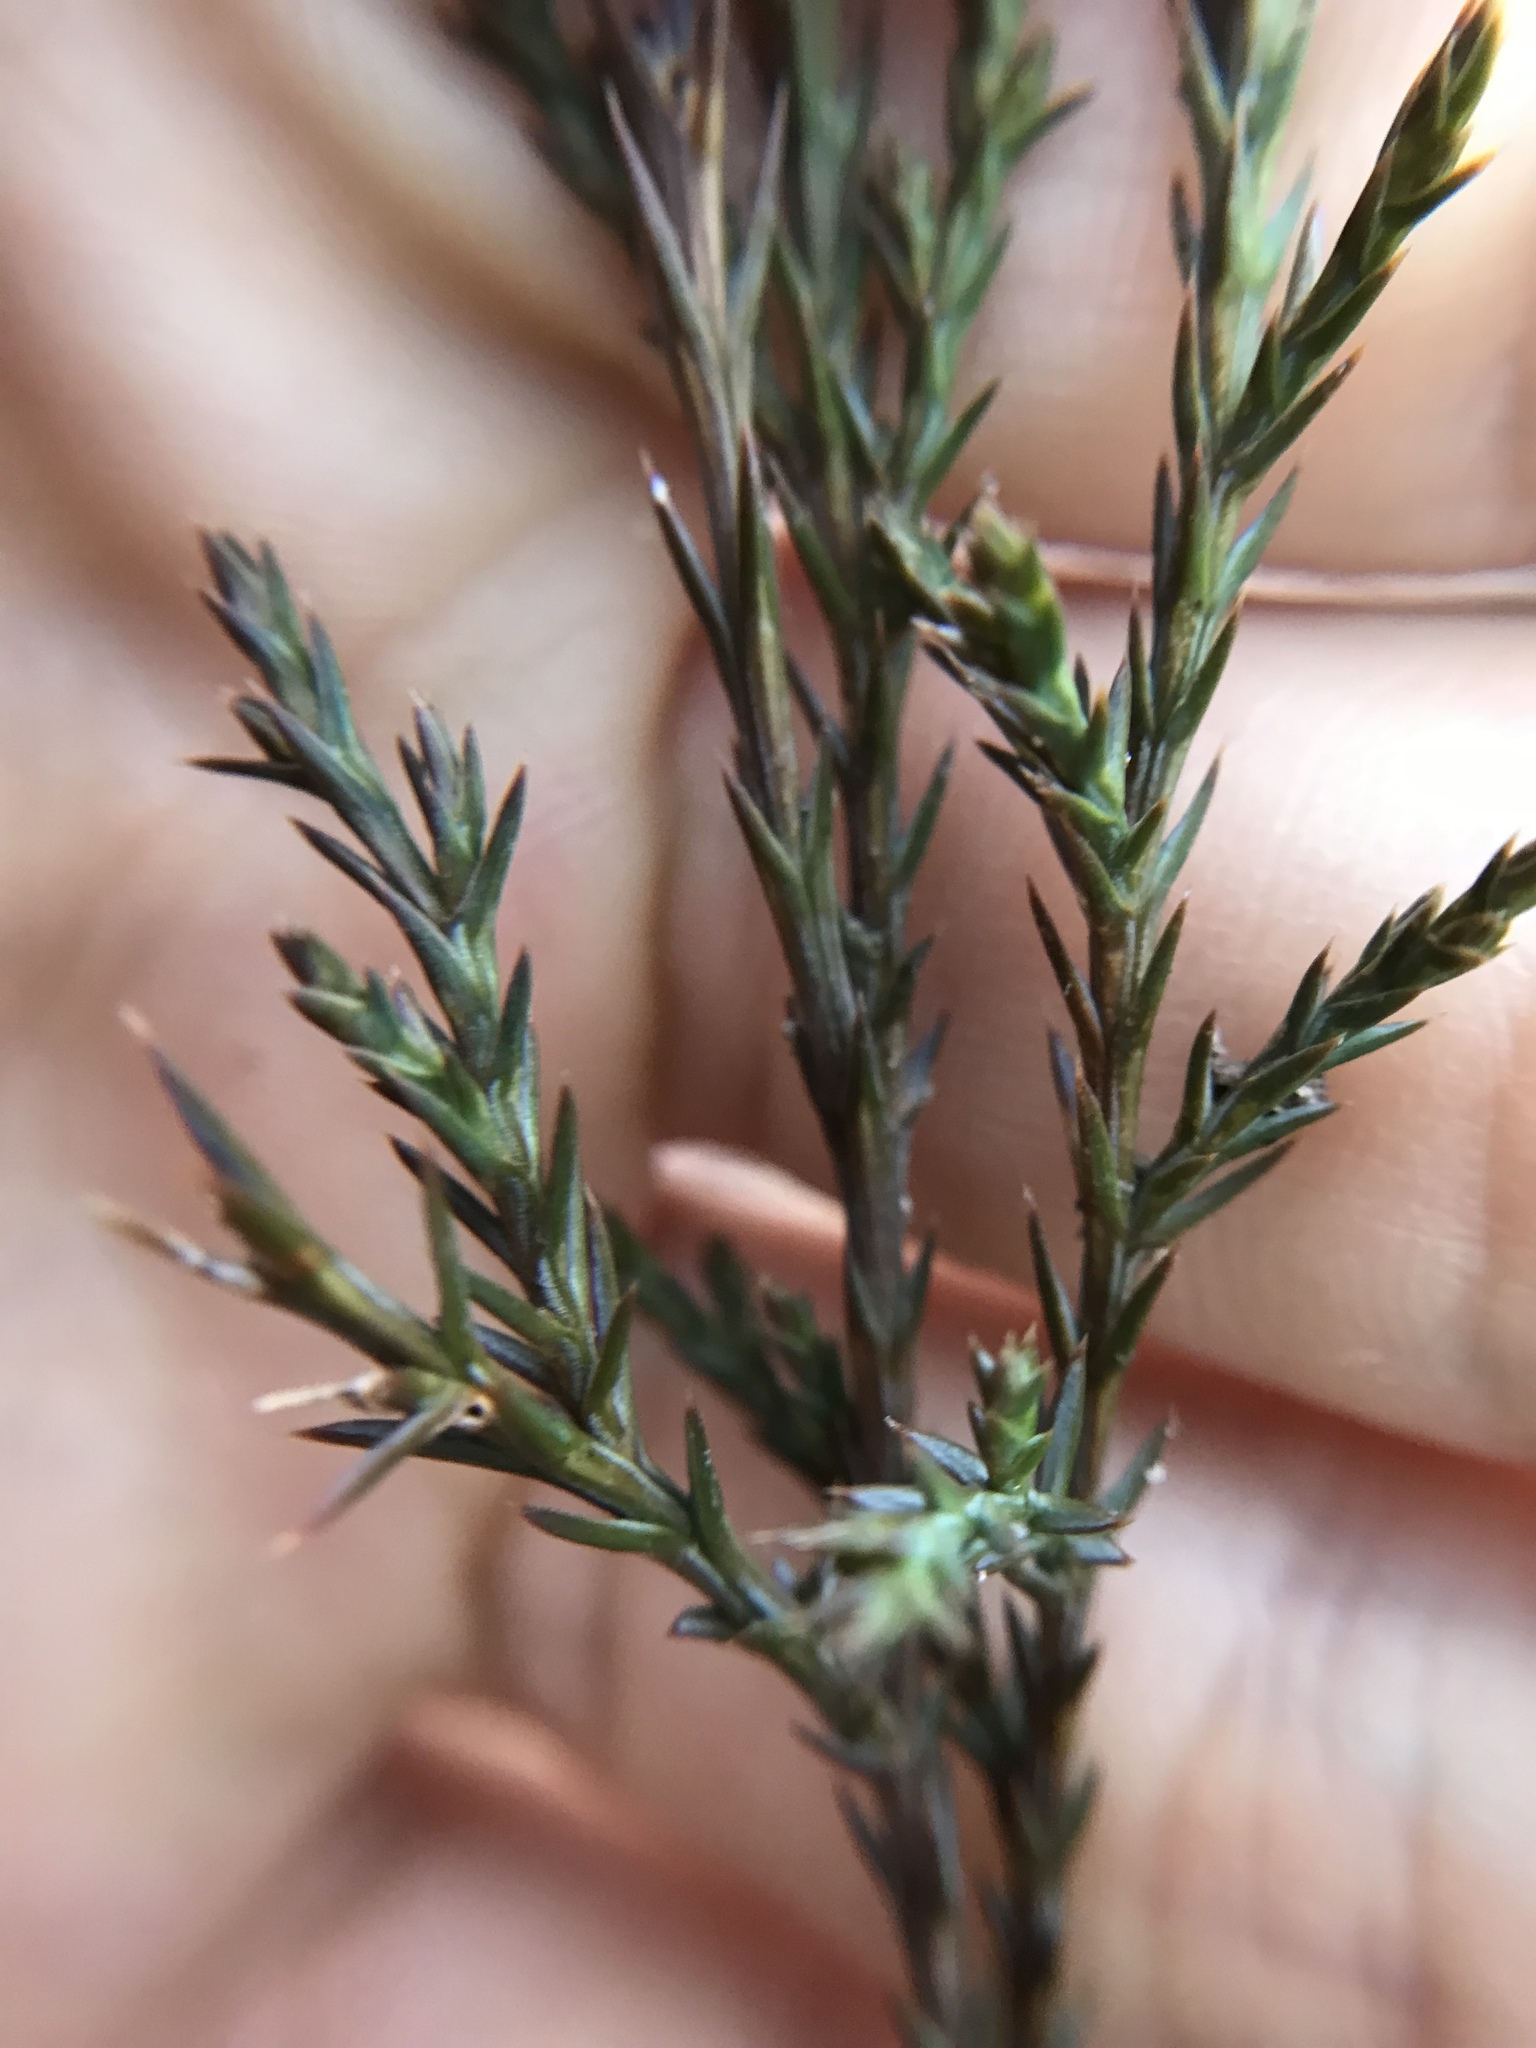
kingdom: Plantae
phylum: Tracheophyta
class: Pinopsida
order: Pinales
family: Cupressaceae
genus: Juniperus
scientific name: Juniperus virginiana
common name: Red juniper
